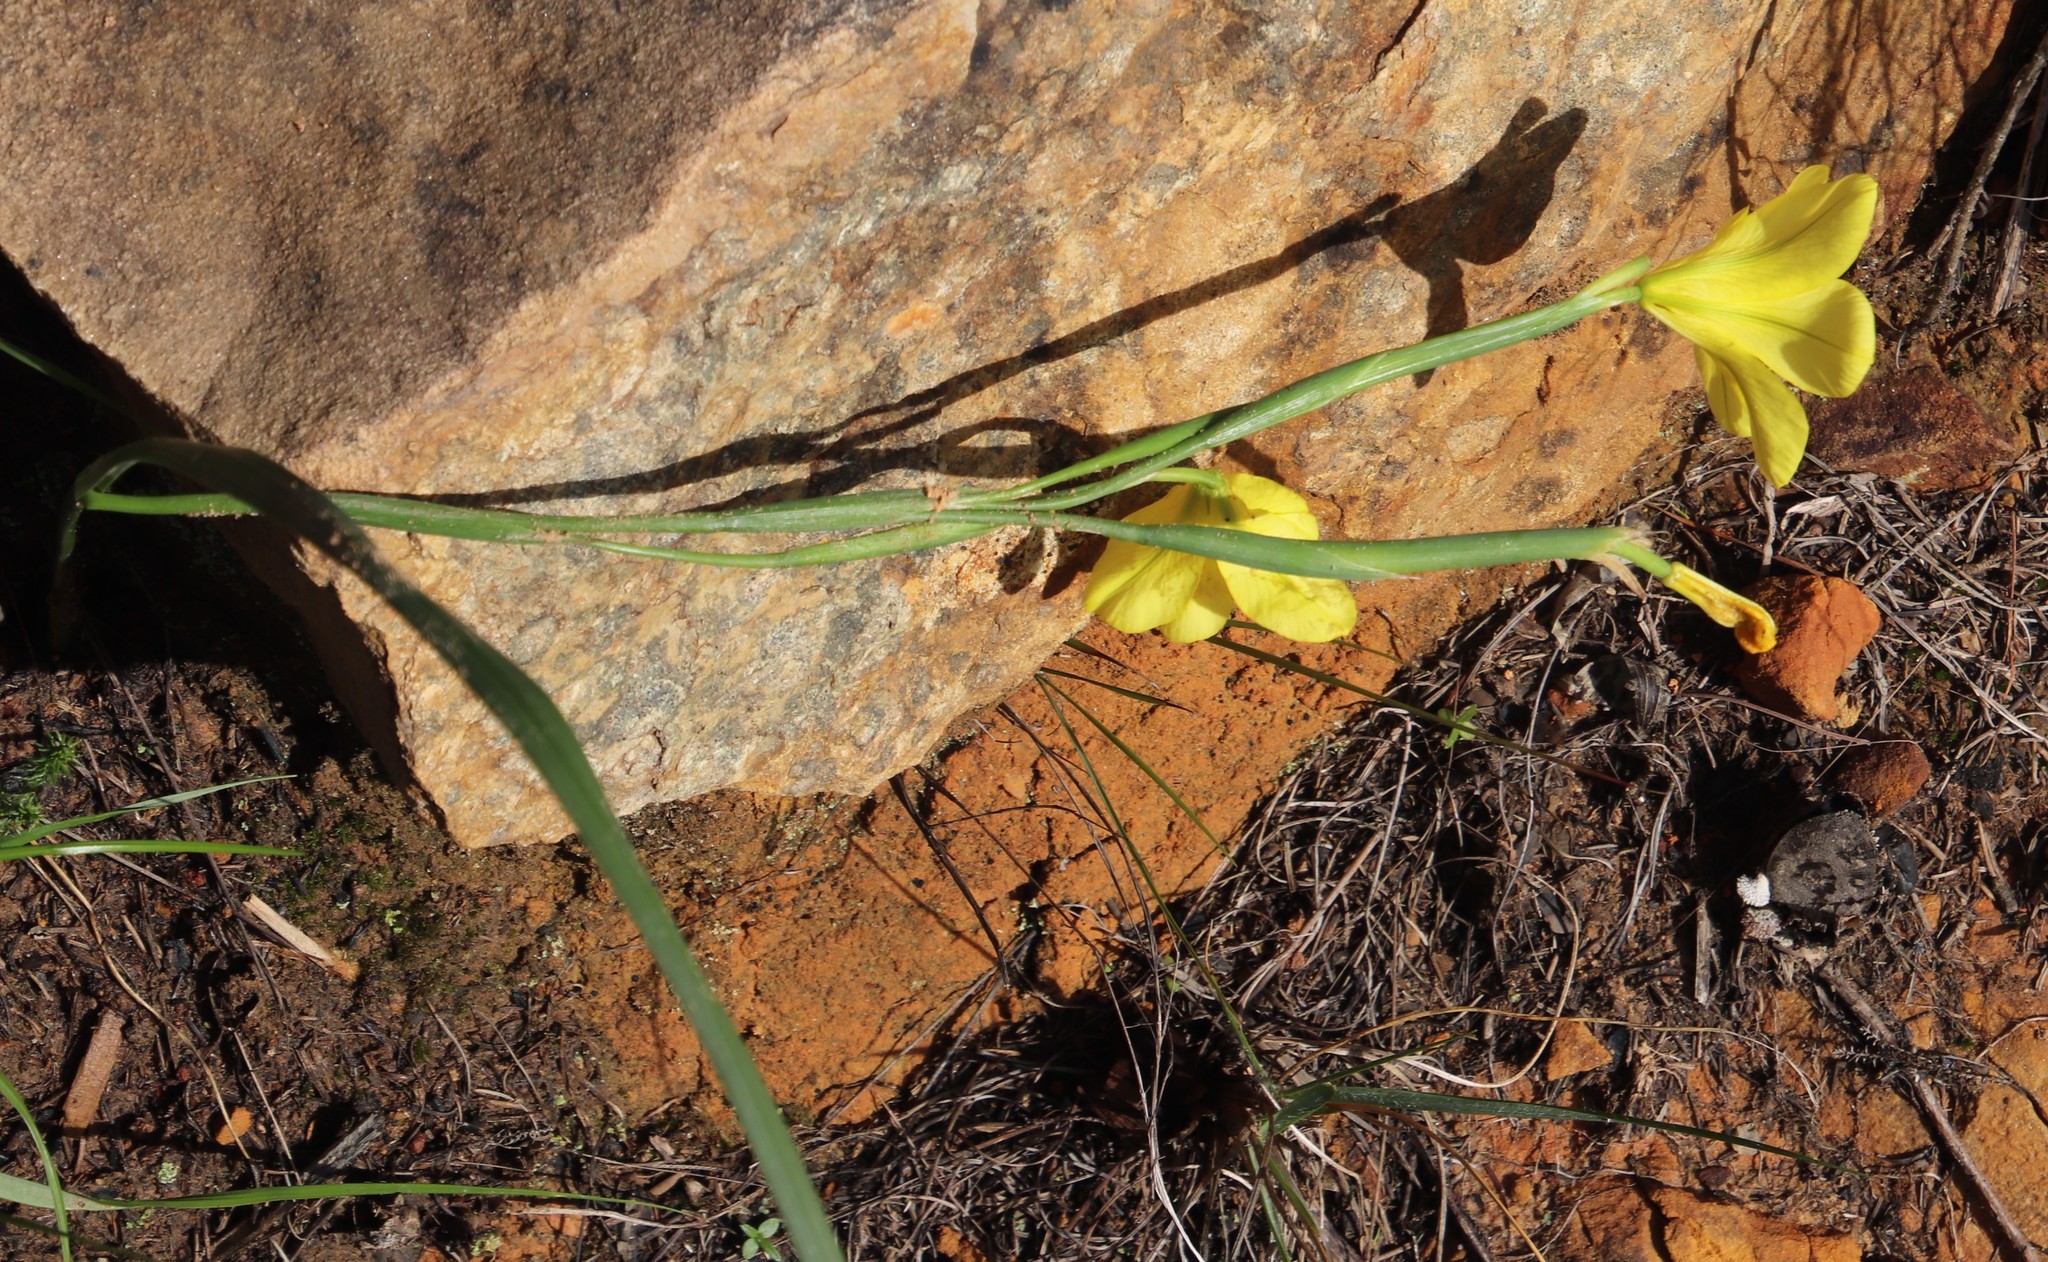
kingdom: Plantae
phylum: Tracheophyta
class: Liliopsida
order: Asparagales
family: Iridaceae
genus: Moraea
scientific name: Moraea ochroleuca
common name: Red tulp
